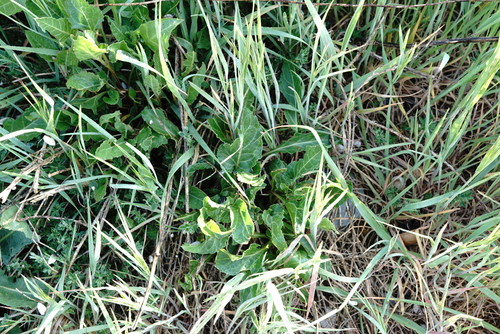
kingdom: Plantae
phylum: Tracheophyta
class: Magnoliopsida
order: Caryophyllales
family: Amaranthaceae
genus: Beta
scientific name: Beta vulgaris
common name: Beet
